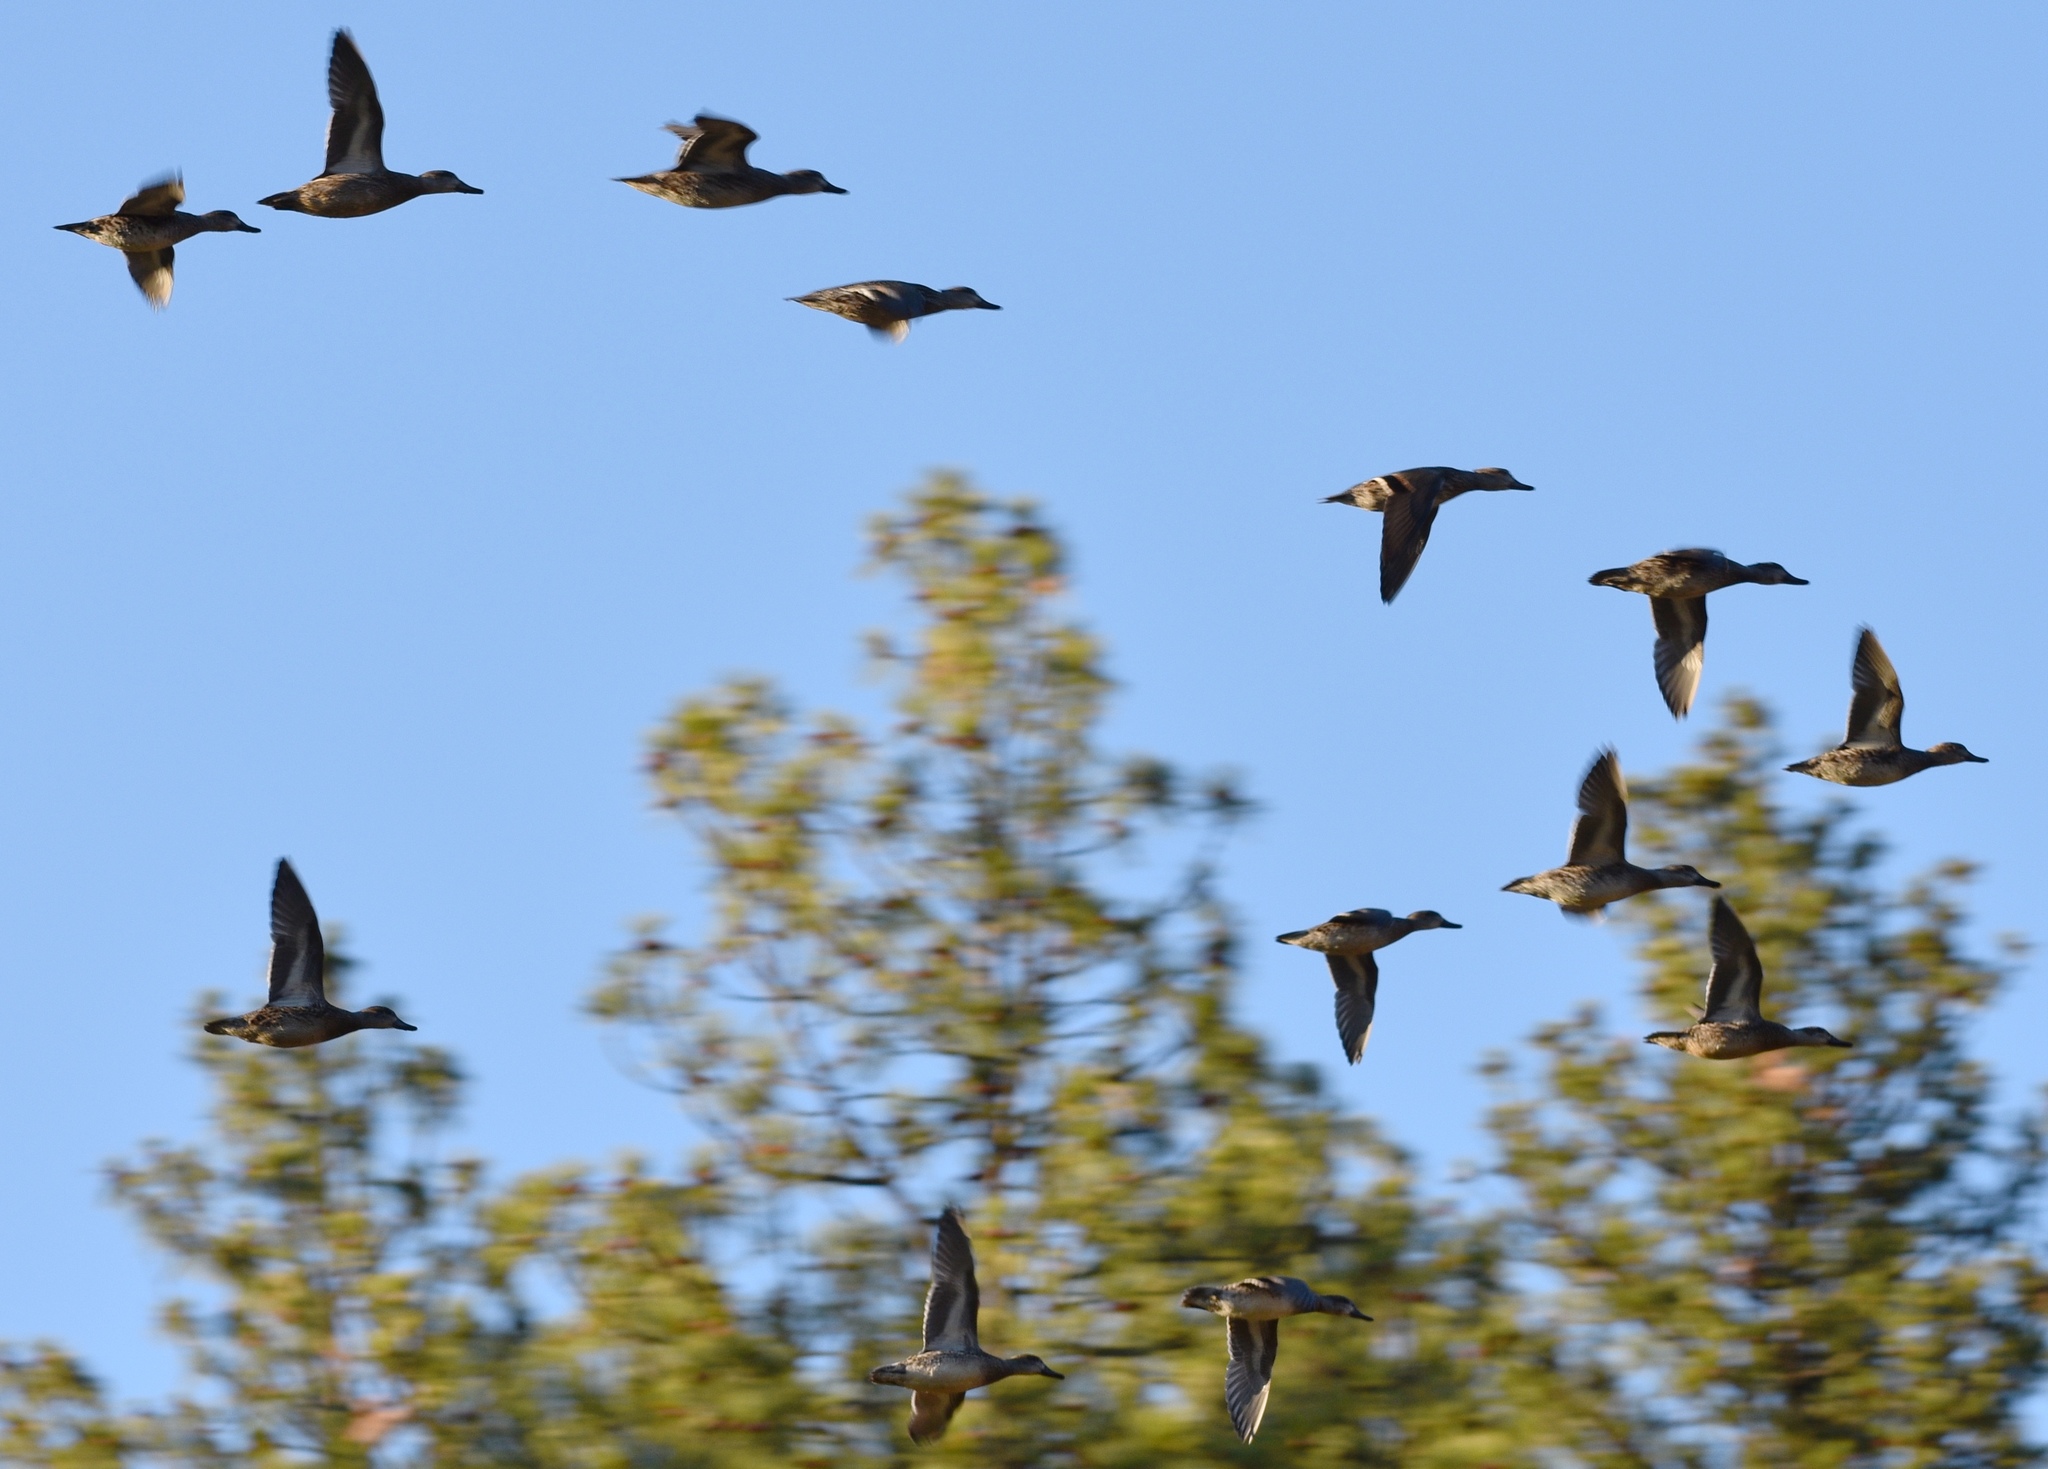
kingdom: Animalia
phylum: Chordata
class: Aves
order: Anseriformes
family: Anatidae
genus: Anas
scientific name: Anas platyrhynchos
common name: Mallard
